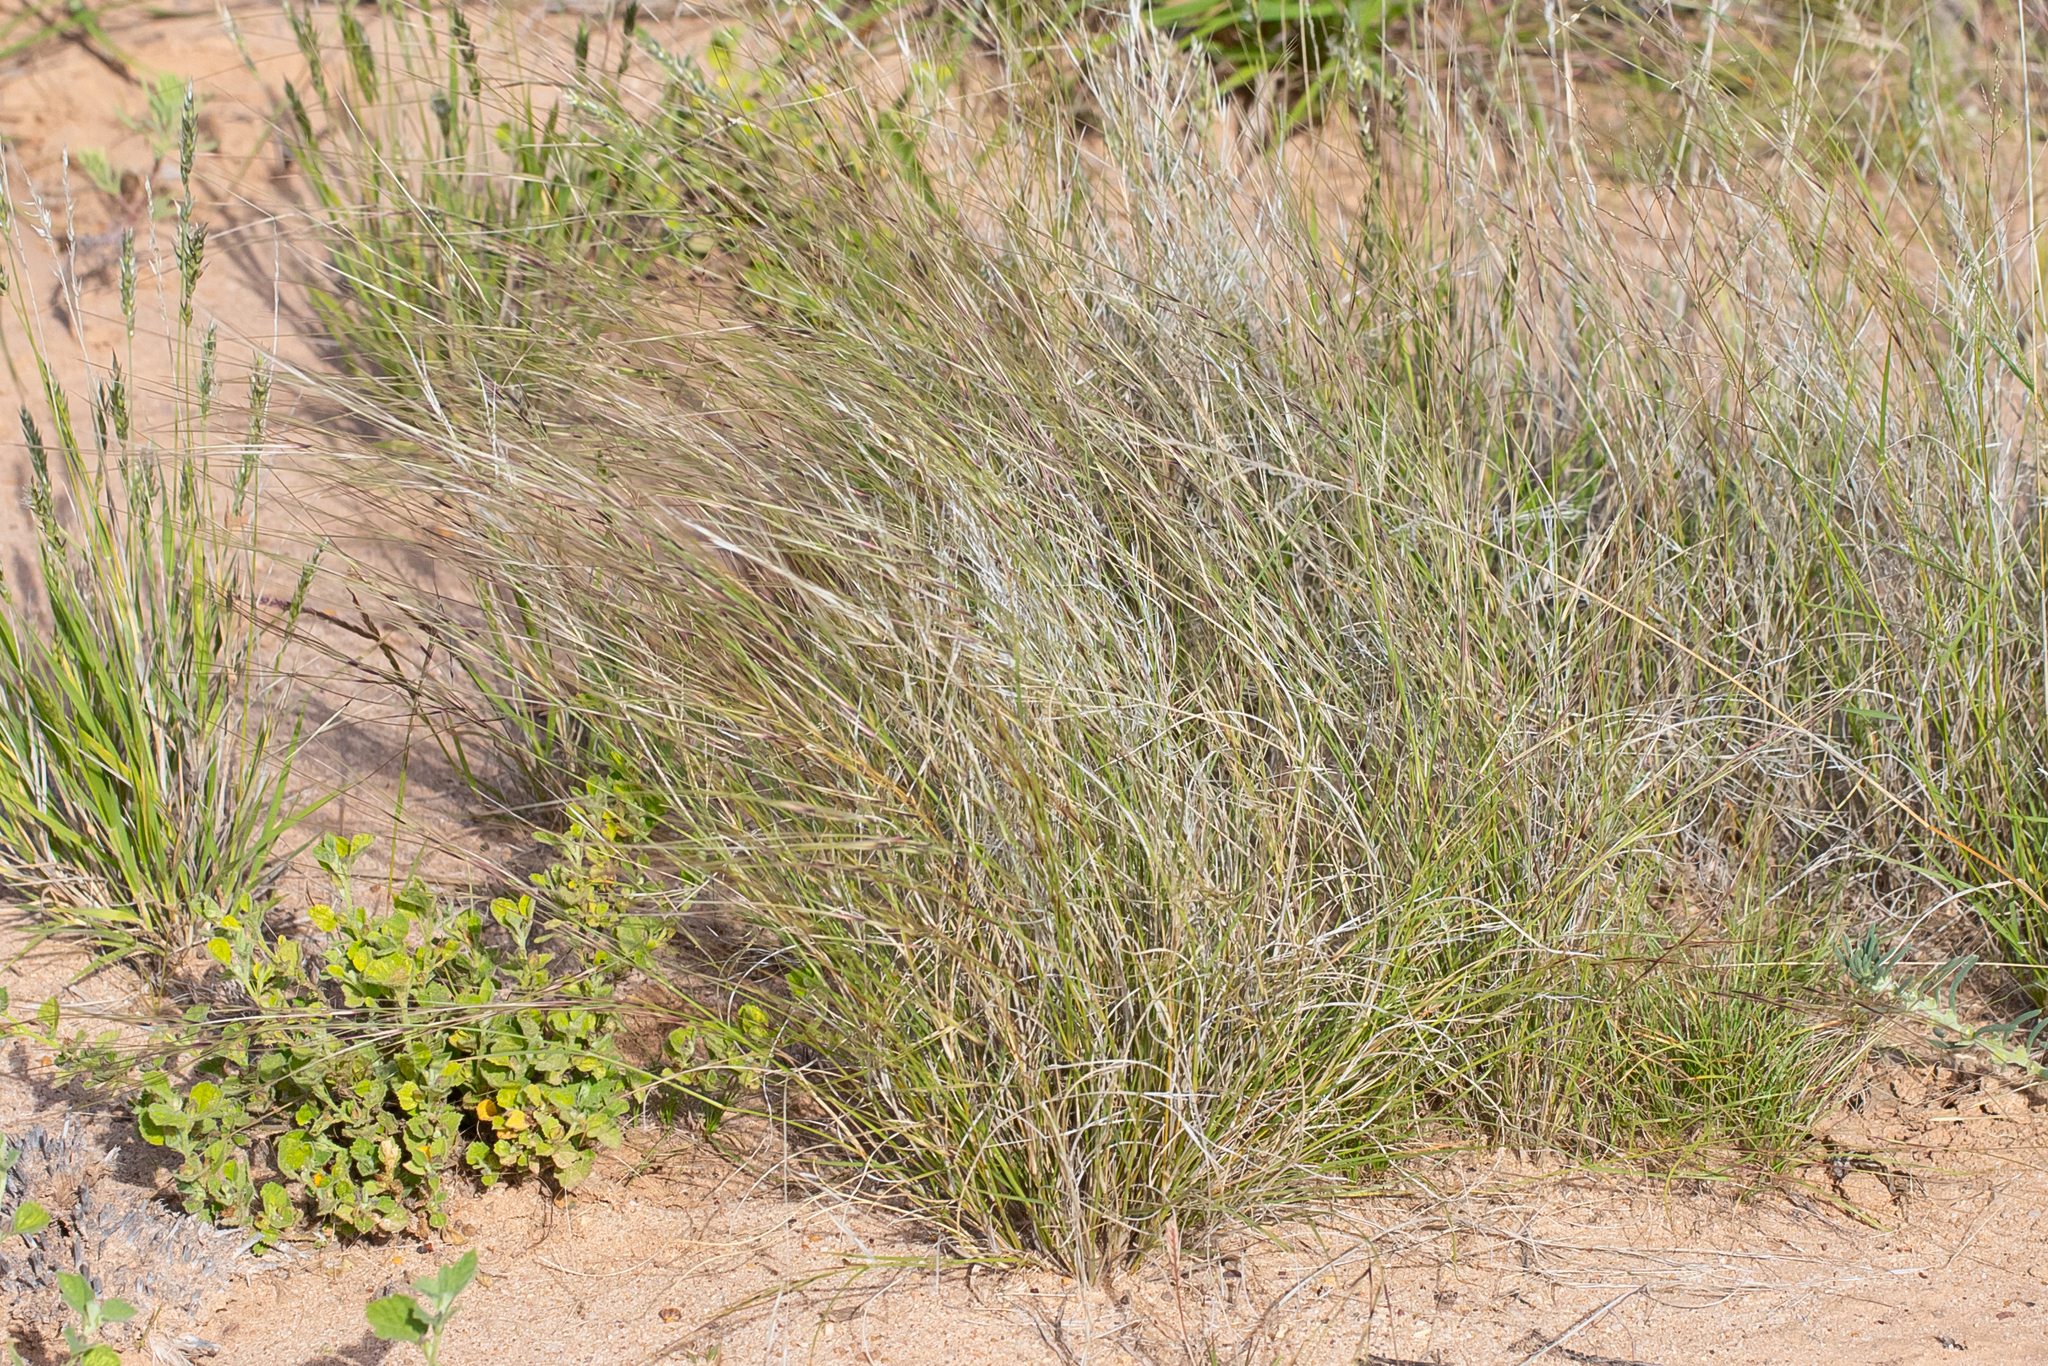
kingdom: Plantae
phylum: Tracheophyta
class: Liliopsida
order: Poales
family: Poaceae
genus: Aristida
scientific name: Aristida contorta
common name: Bunch kerosene grass
